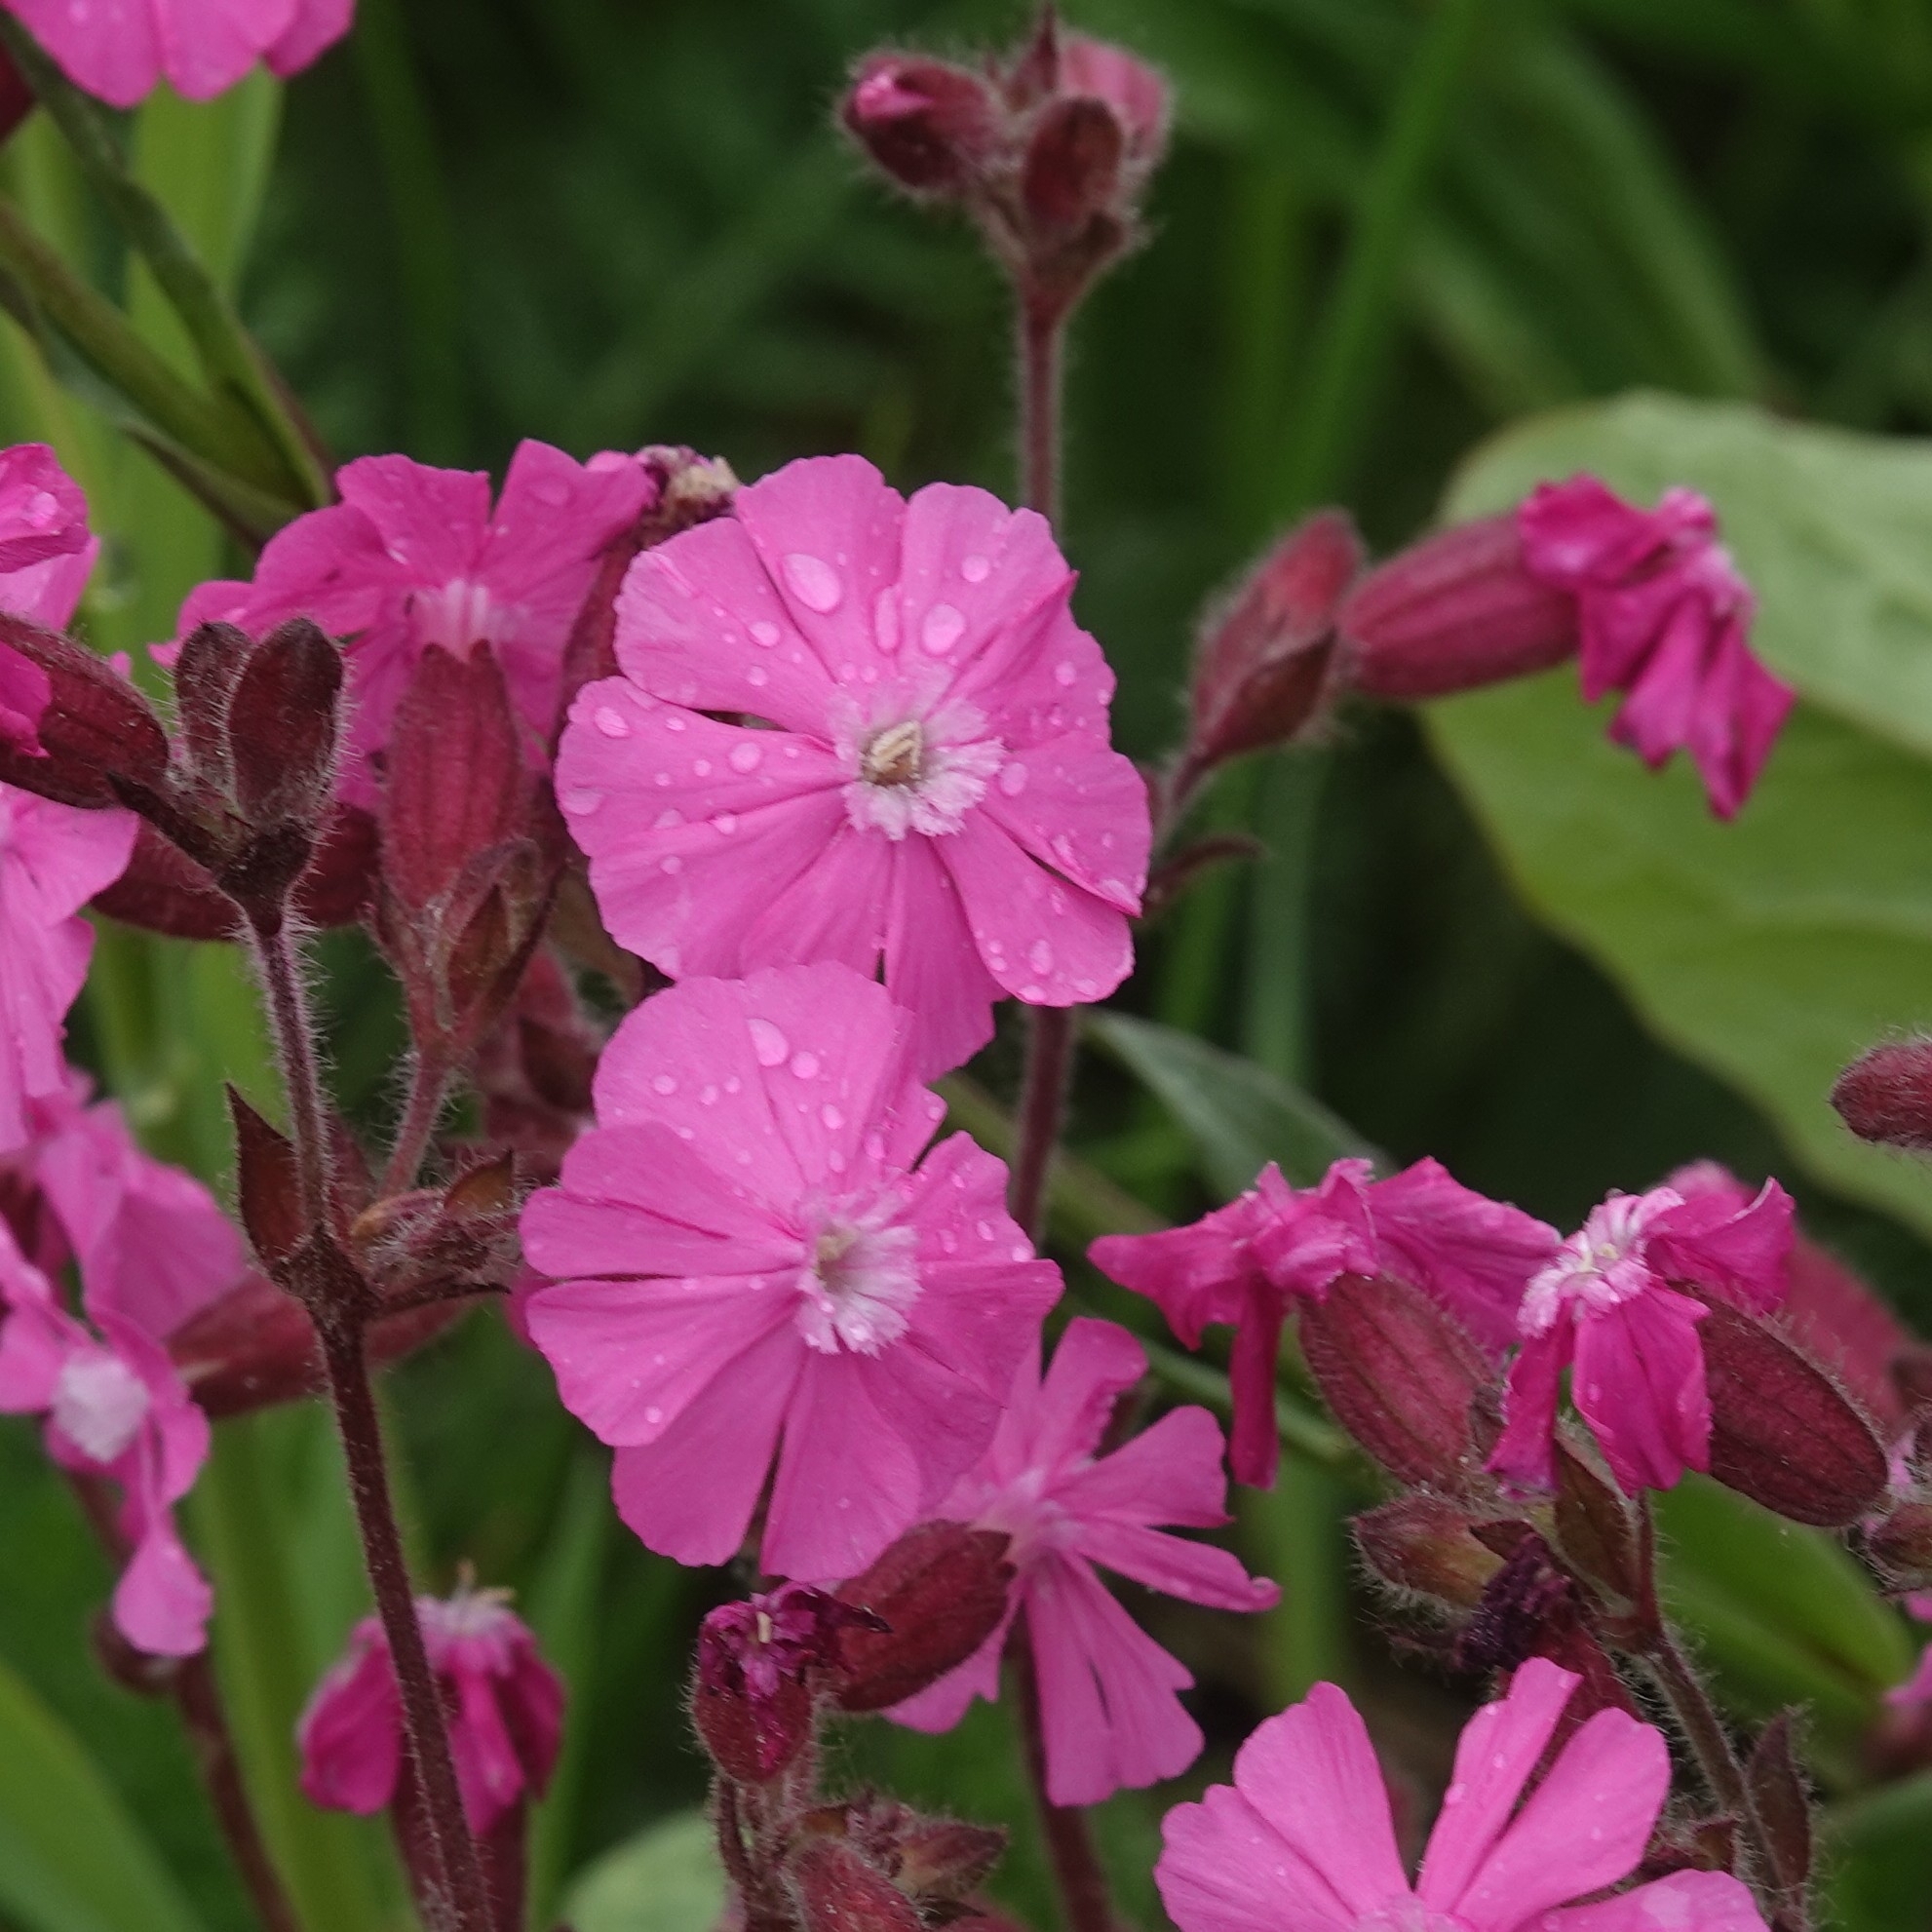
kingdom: Plantae
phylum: Tracheophyta
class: Magnoliopsida
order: Caryophyllales
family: Caryophyllaceae
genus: Silene
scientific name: Silene dioica
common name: Red campion
